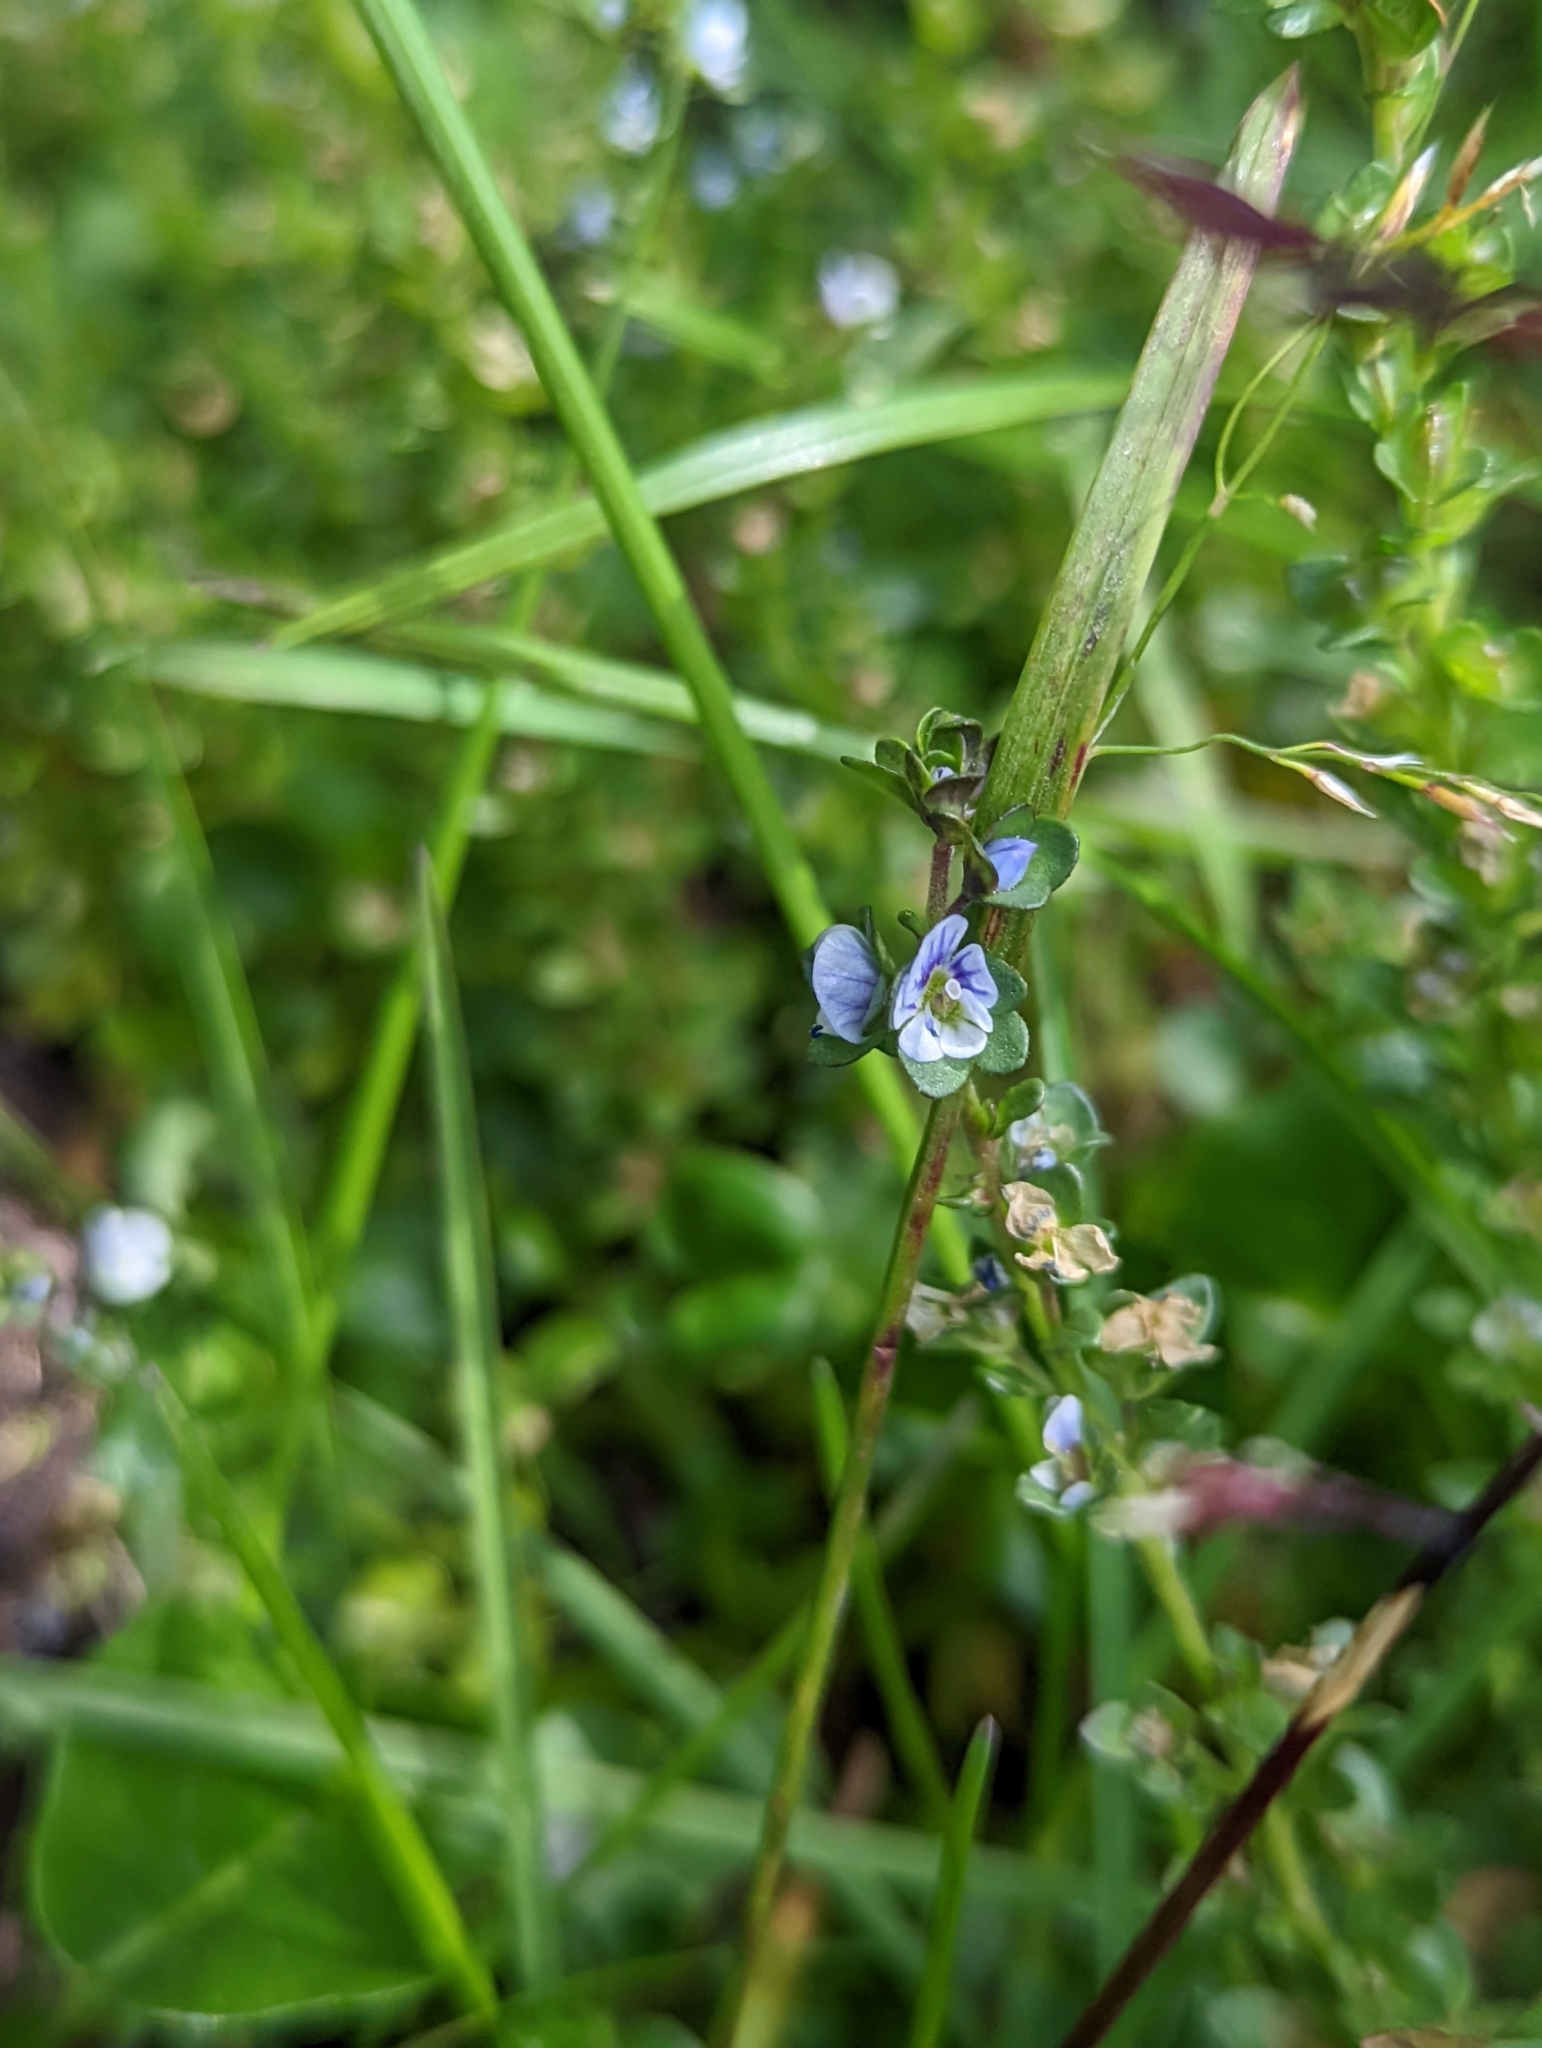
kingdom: Plantae
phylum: Tracheophyta
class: Magnoliopsida
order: Lamiales
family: Plantaginaceae
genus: Veronica
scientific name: Veronica serpyllifolia
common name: Thyme-leaved speedwell
